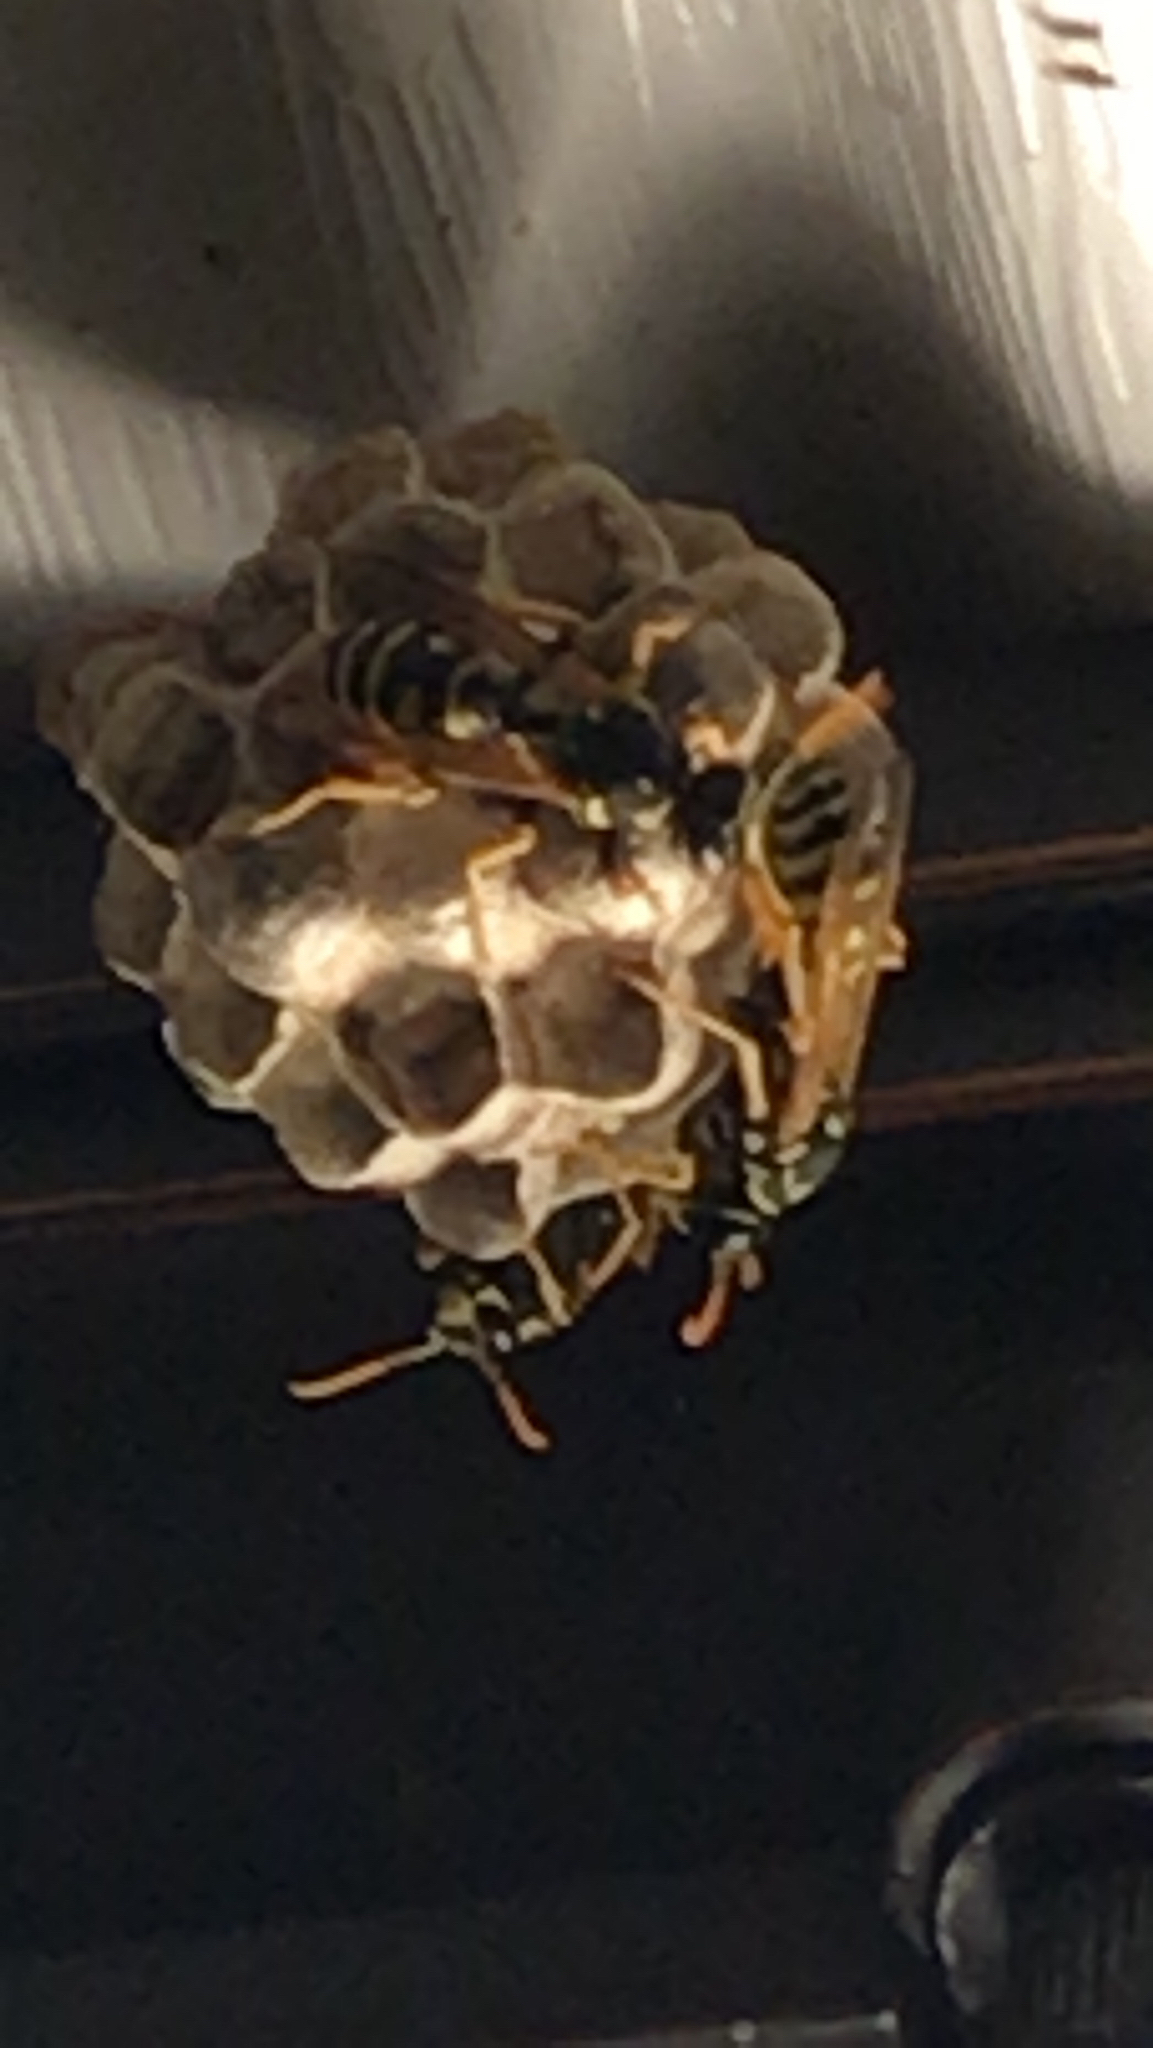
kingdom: Animalia
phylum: Arthropoda
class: Insecta
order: Hymenoptera
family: Eumenidae
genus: Polistes
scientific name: Polistes dominula
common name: Paper wasp
